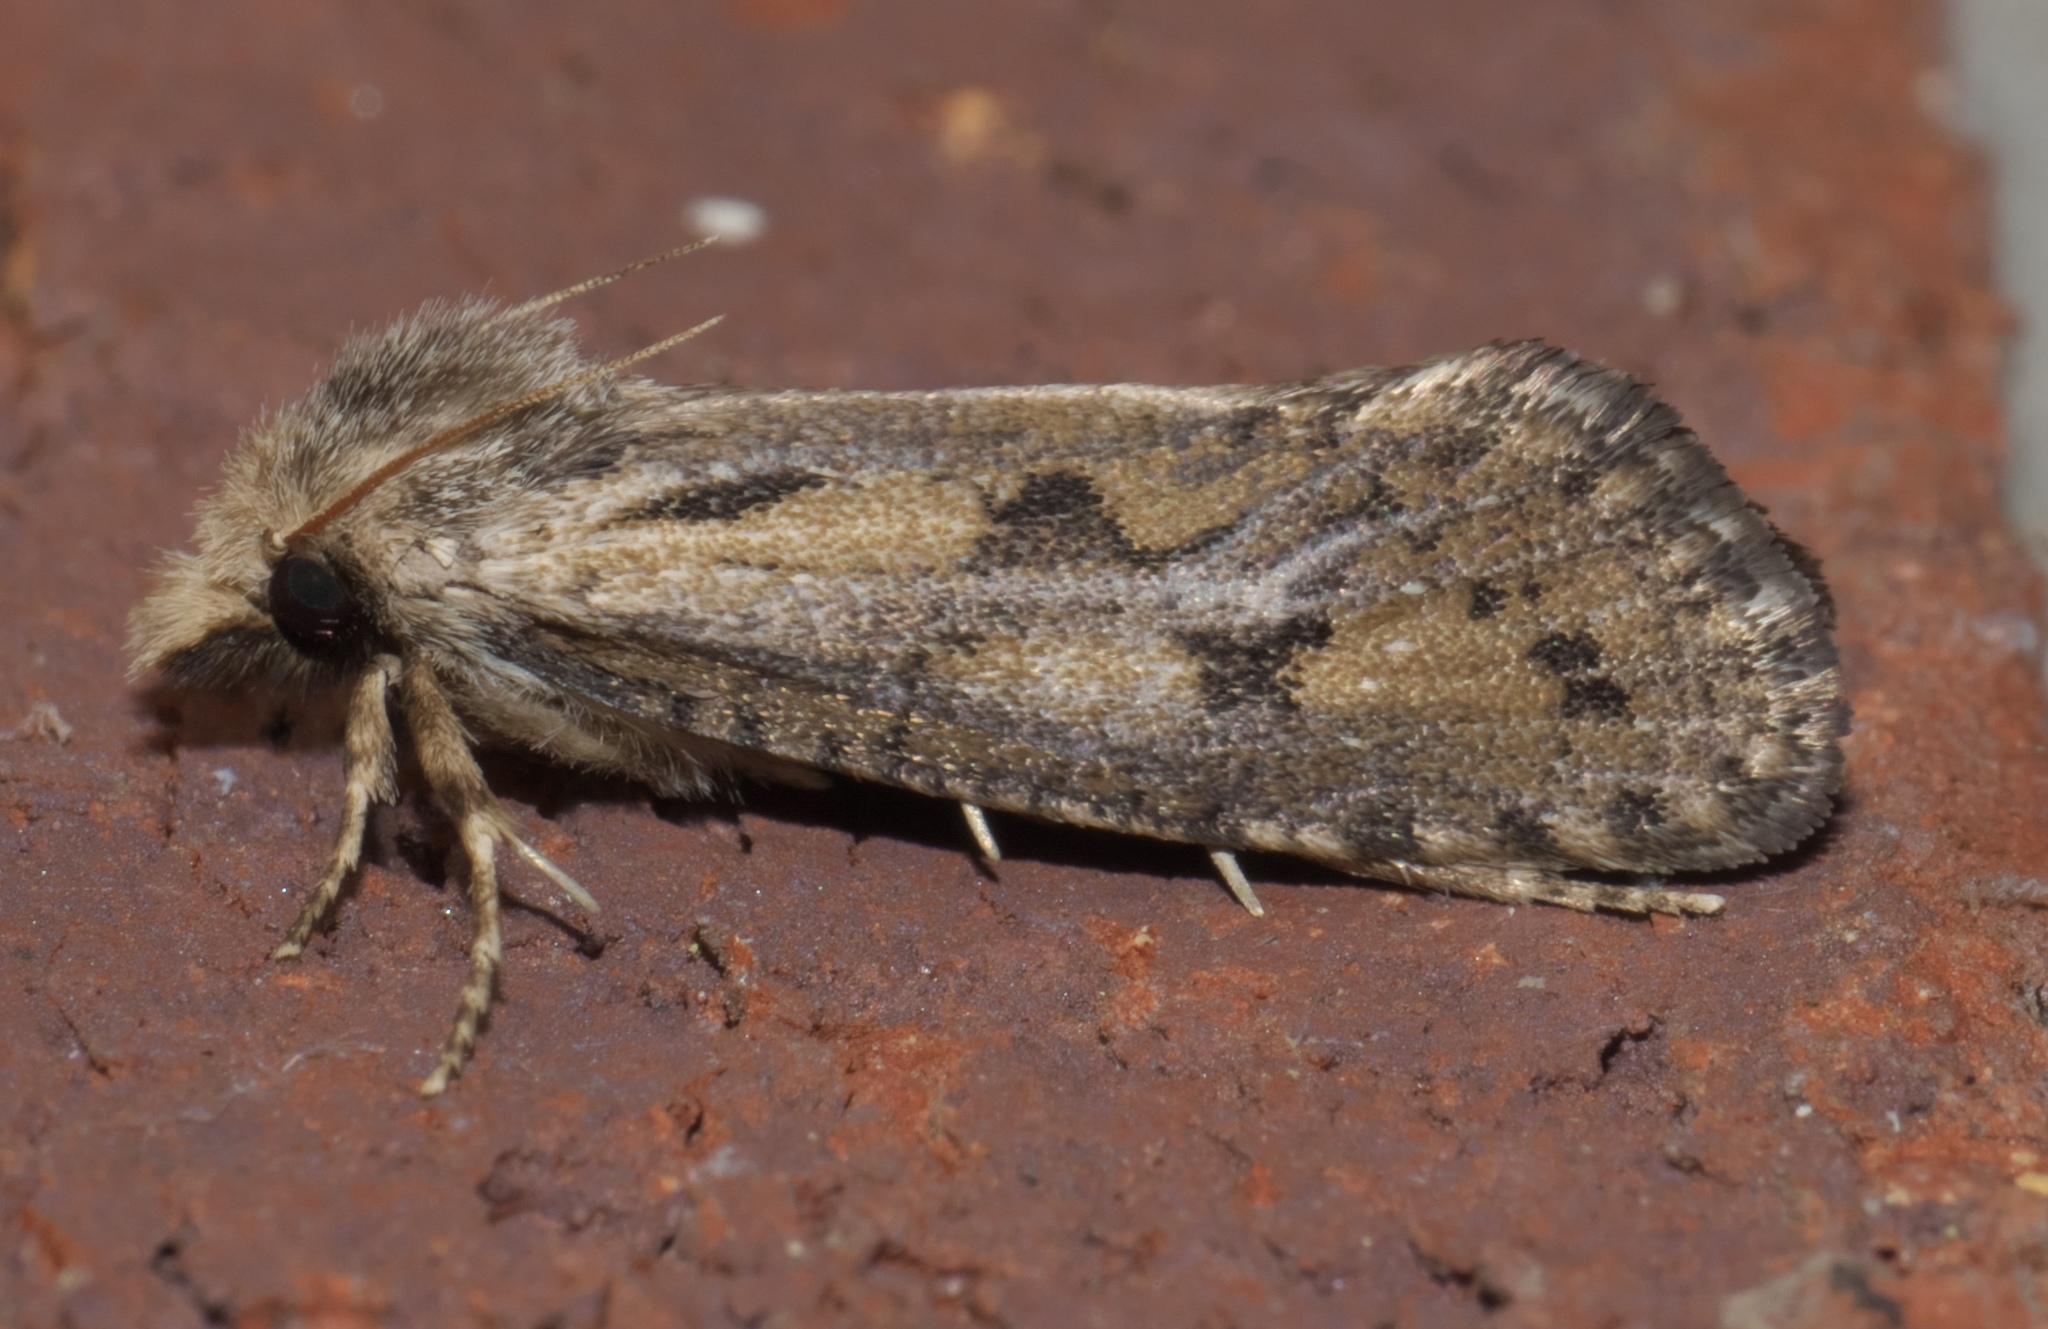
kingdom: Animalia
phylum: Arthropoda
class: Insecta
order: Lepidoptera
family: Tineidae
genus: Acrolophus
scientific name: Acrolophus popeanella
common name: Clemens' grass tubeworm moth
